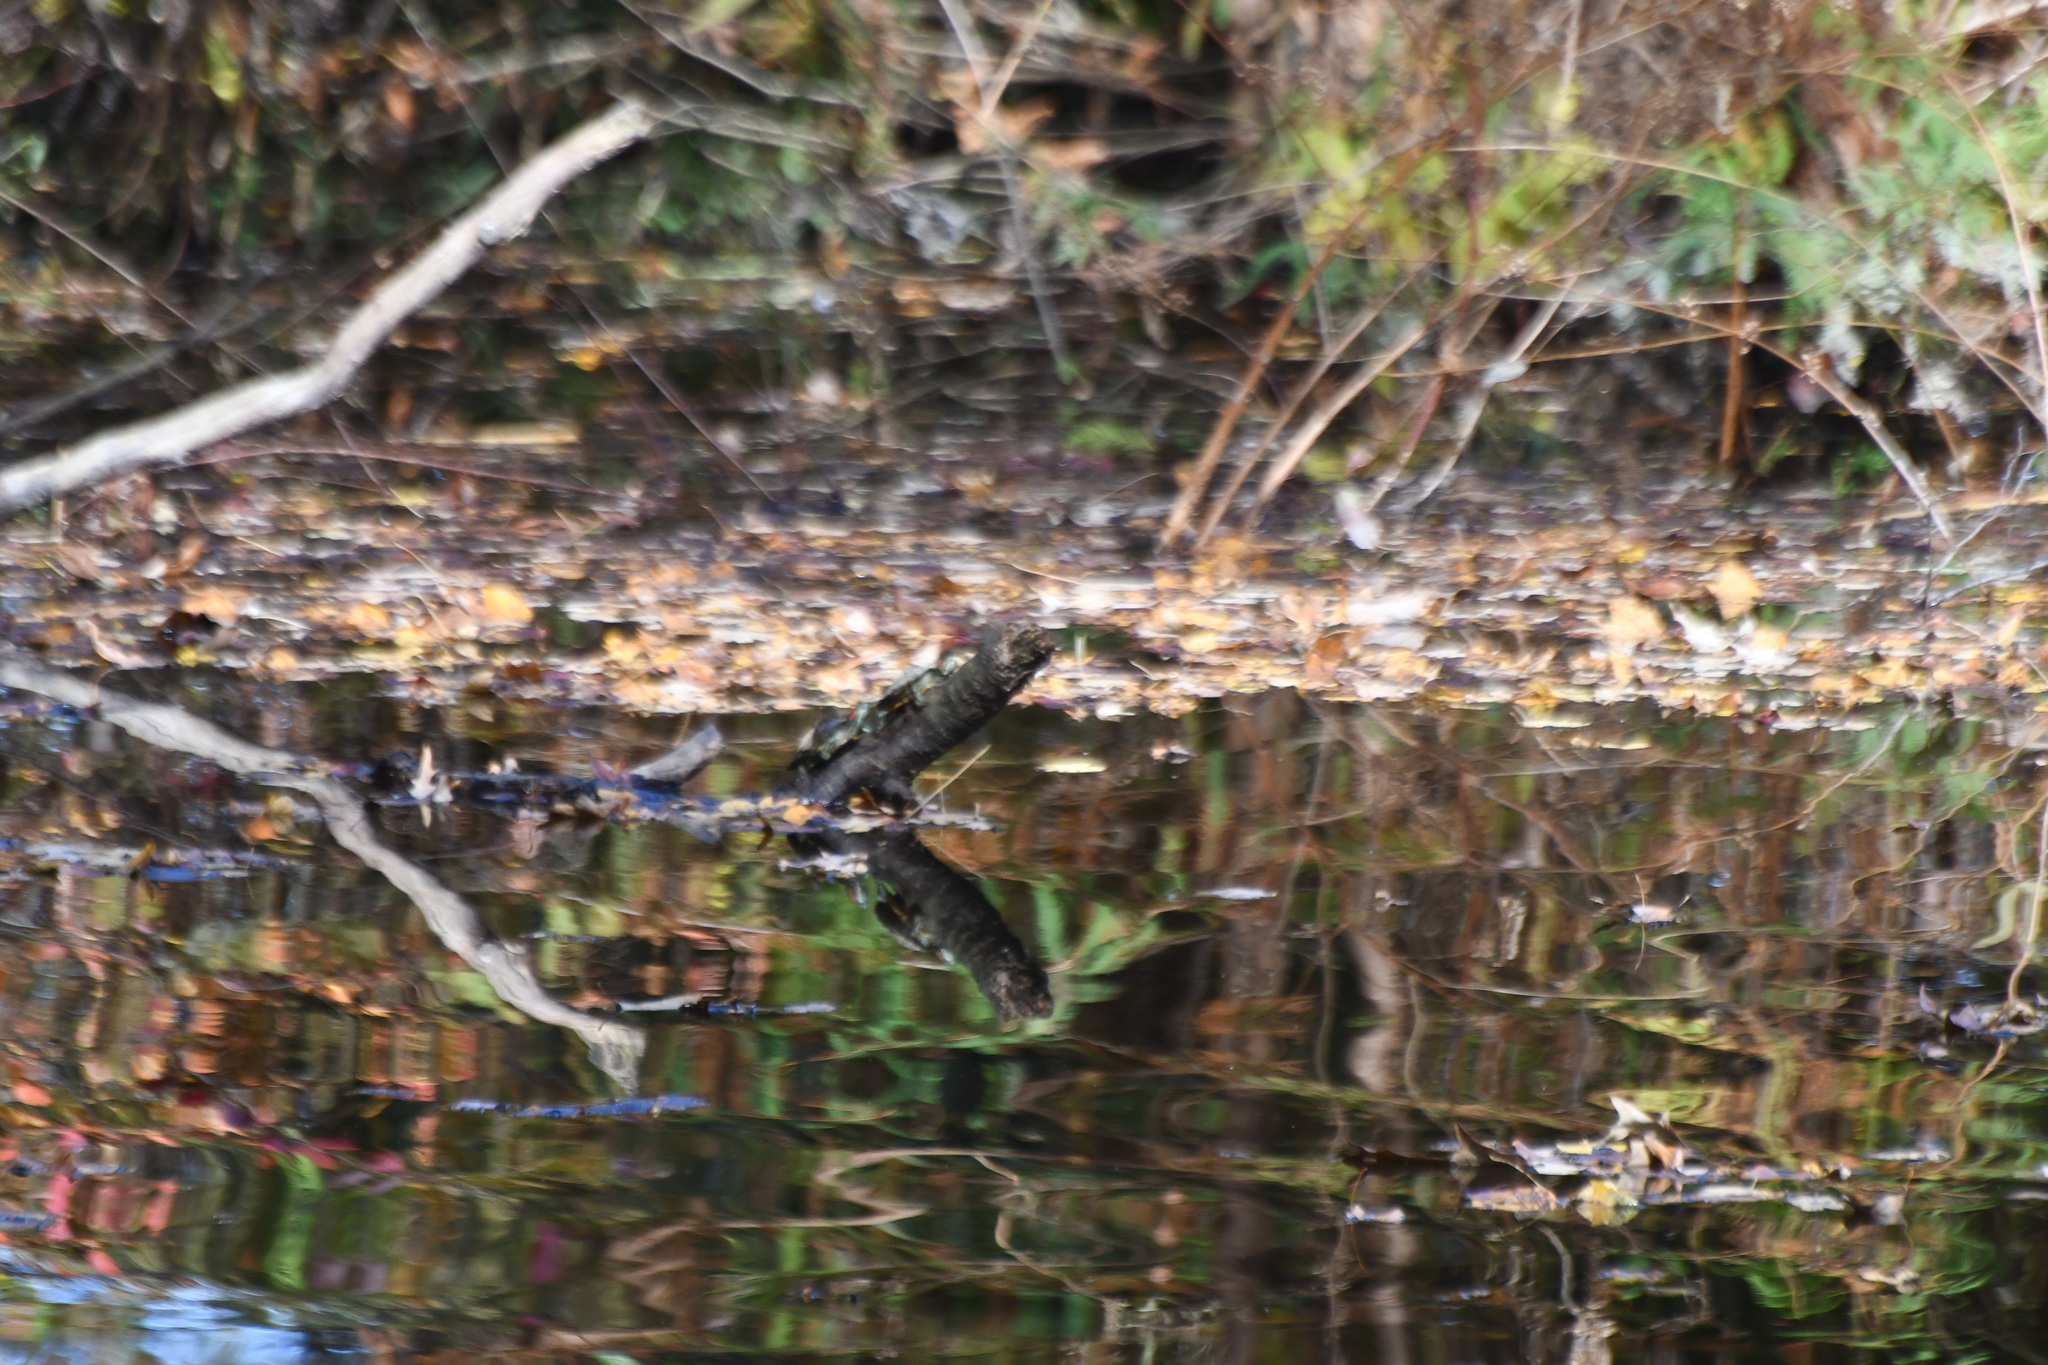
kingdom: Animalia
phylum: Chordata
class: Testudines
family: Emydidae
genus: Trachemys
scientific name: Trachemys scripta
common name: Slider
